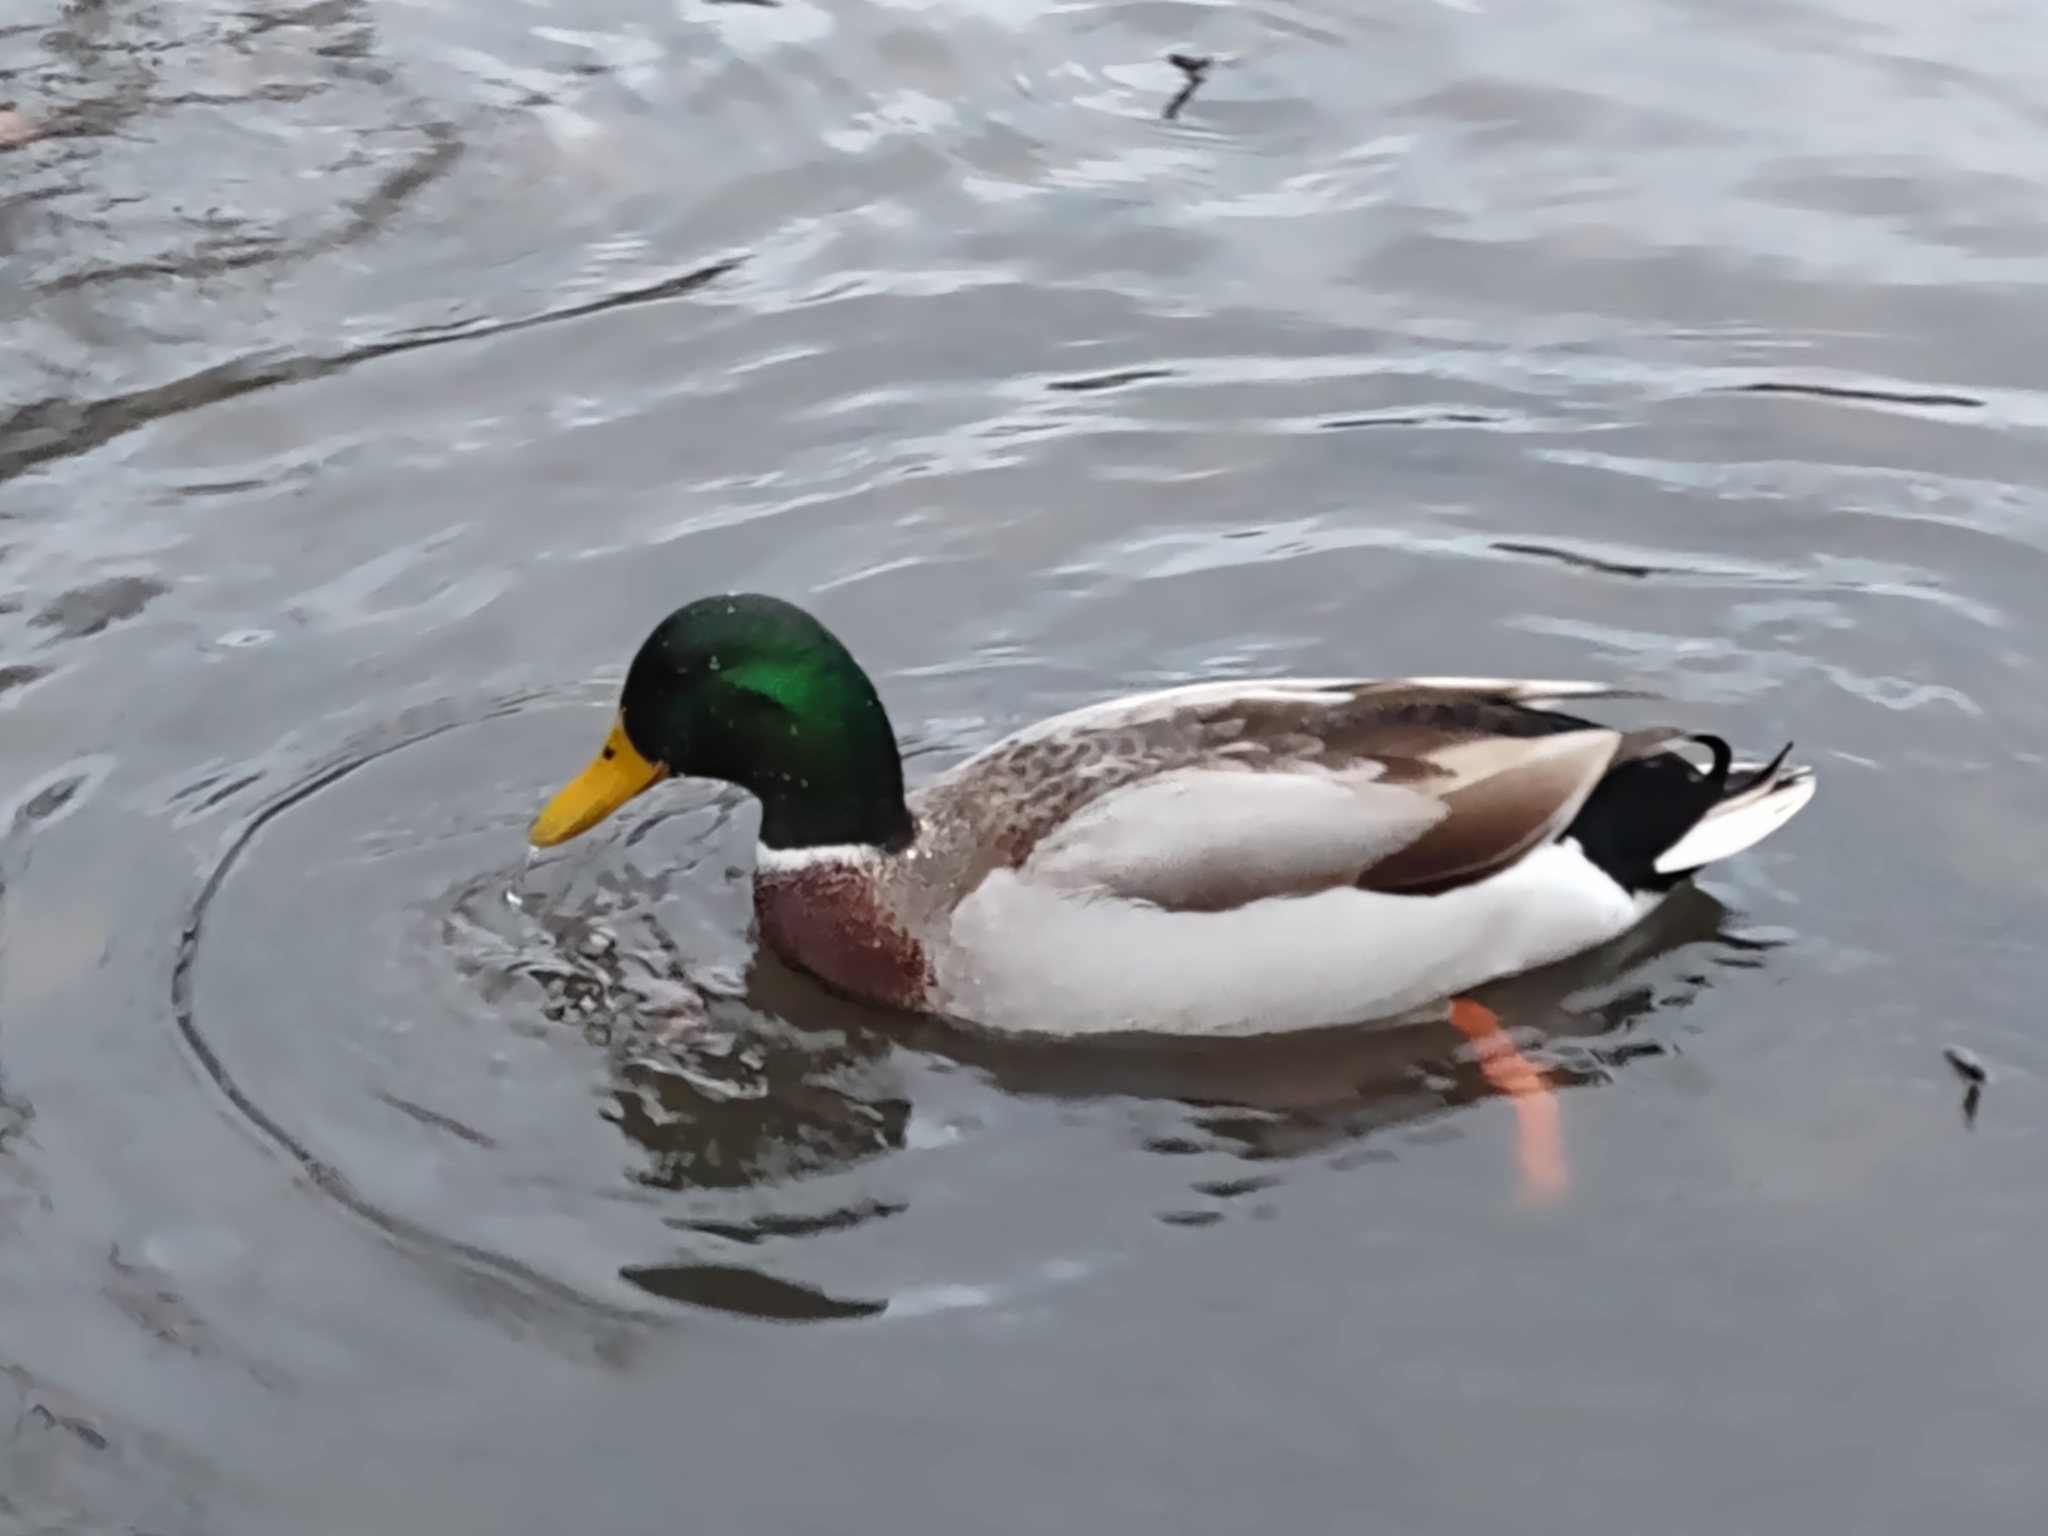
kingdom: Animalia
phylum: Chordata
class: Aves
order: Anseriformes
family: Anatidae
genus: Anas
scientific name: Anas platyrhynchos
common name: Mallard
